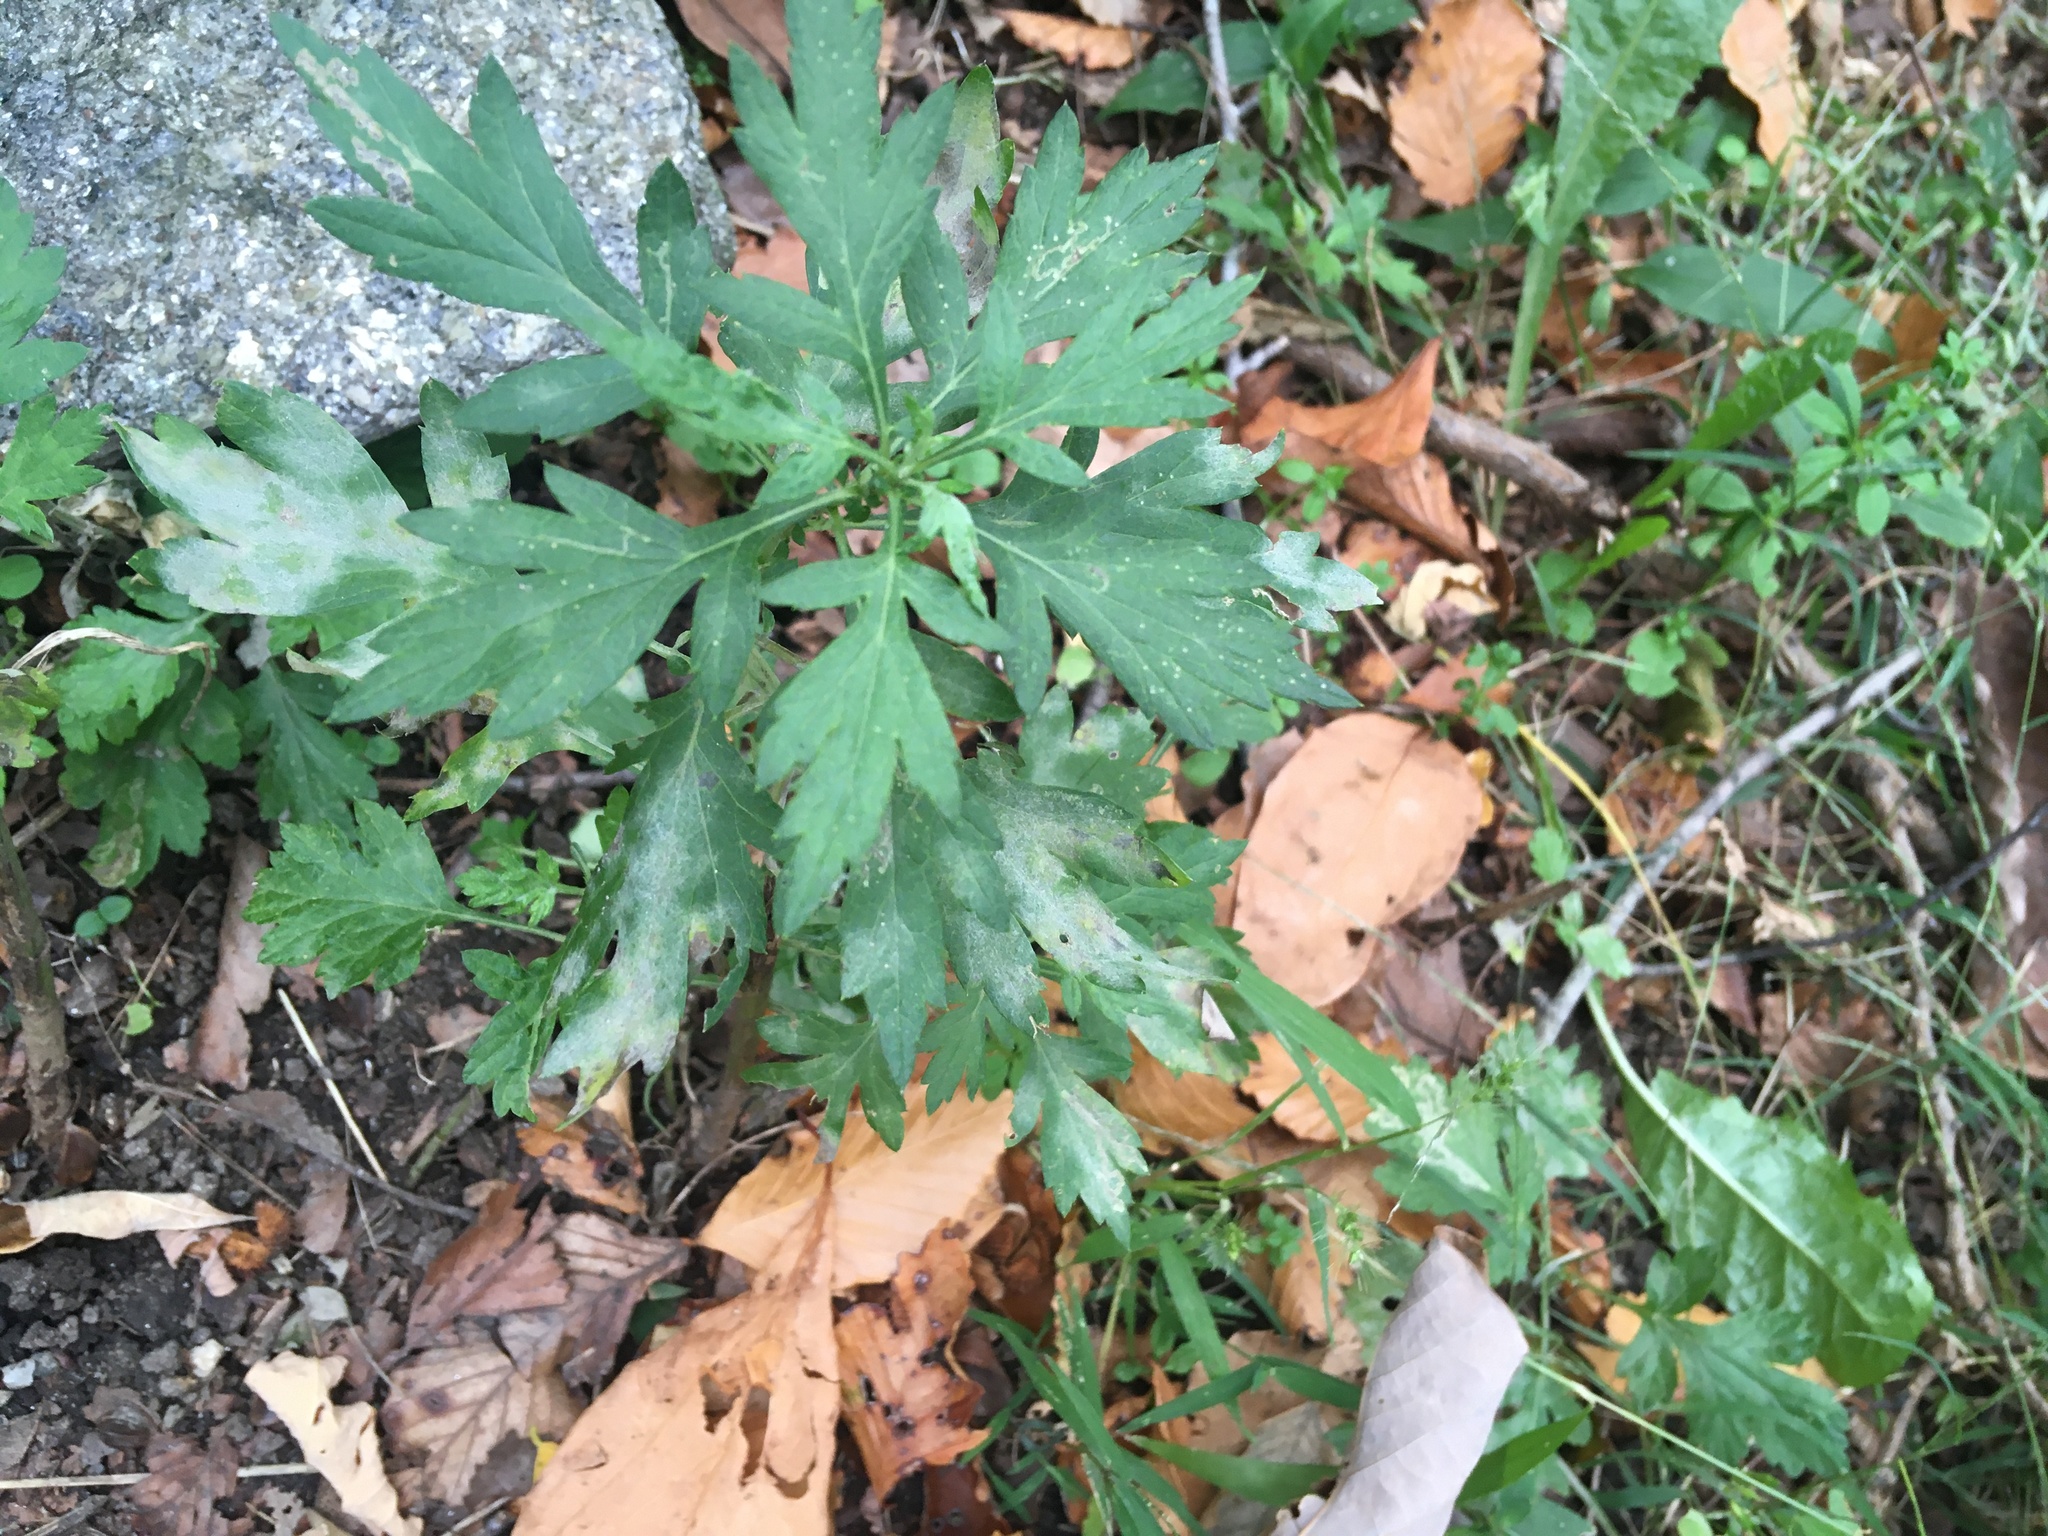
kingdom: Plantae
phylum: Tracheophyta
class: Magnoliopsida
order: Asterales
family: Asteraceae
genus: Artemisia
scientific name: Artemisia vulgaris
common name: Mugwort
